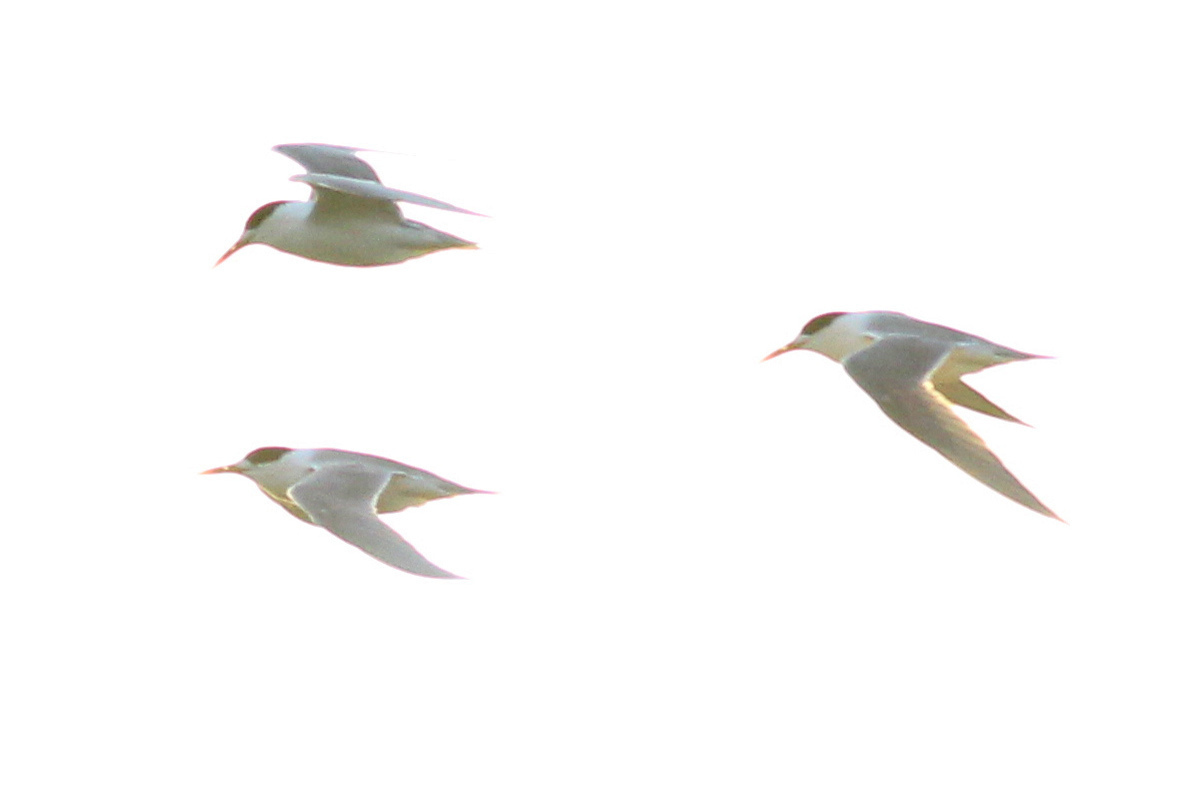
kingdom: Animalia
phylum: Chordata
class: Aves
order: Charadriiformes
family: Laridae
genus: Sternula
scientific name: Sternula nereis
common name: Fairy tern
